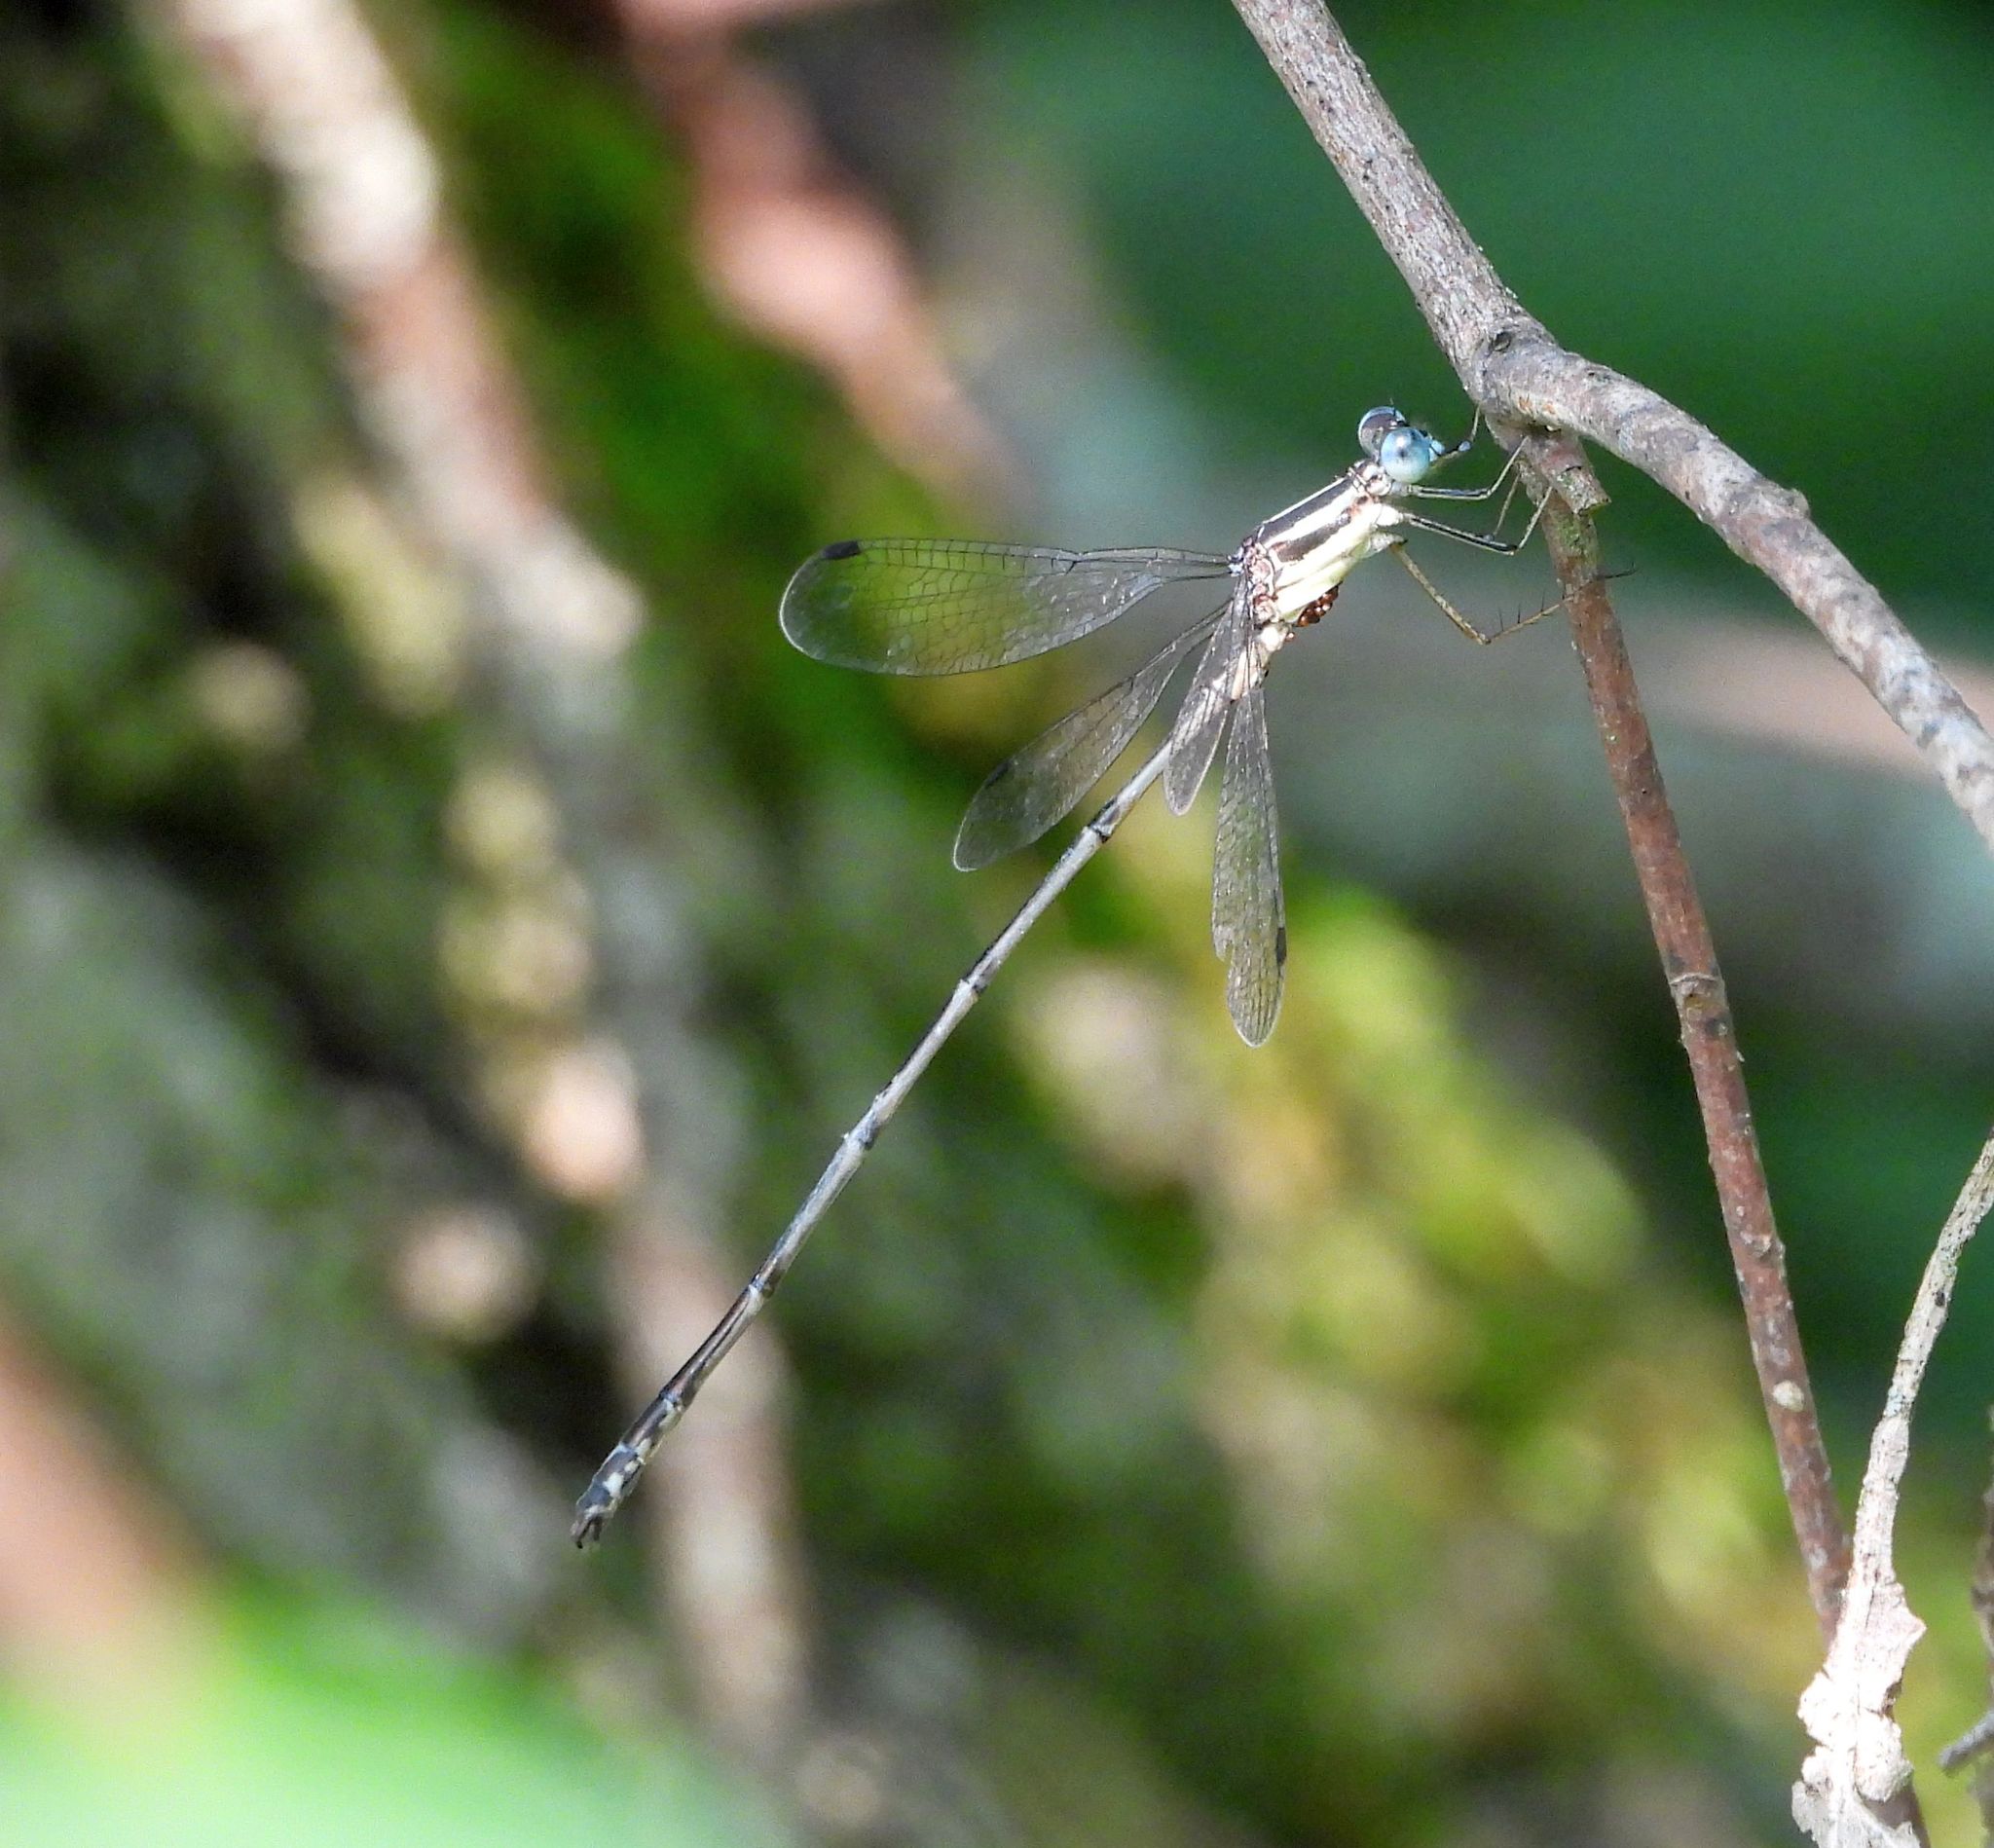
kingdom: Animalia
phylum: Arthropoda
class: Insecta
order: Odonata
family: Lestidae
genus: Lestes
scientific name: Lestes rectangularis
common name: Slender spreadwing
